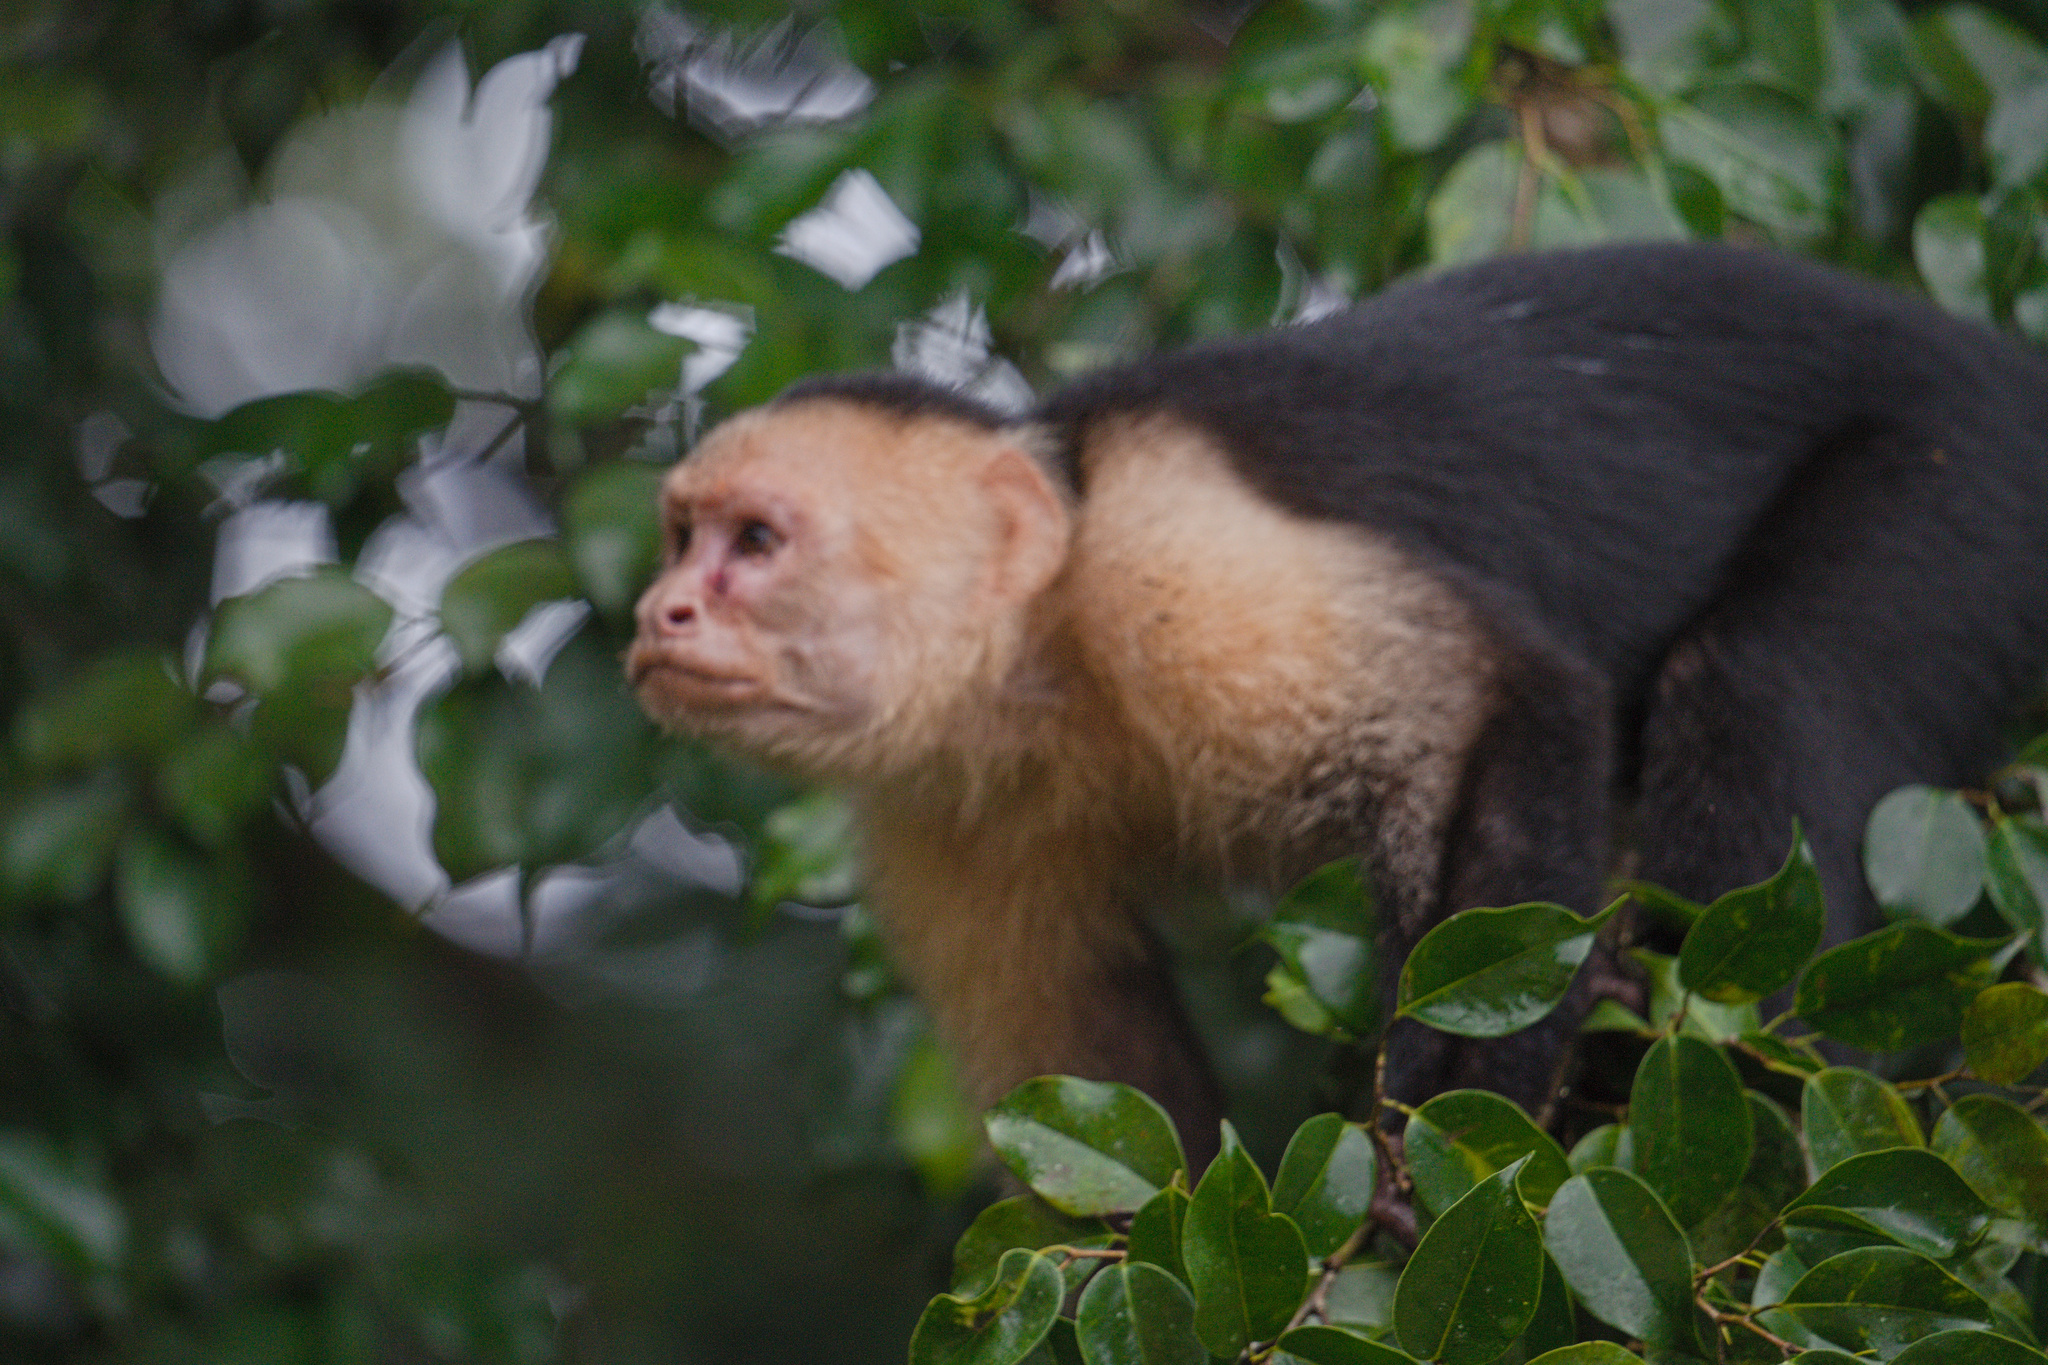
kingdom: Animalia
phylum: Chordata
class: Mammalia
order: Primates
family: Cebidae
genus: Cebus
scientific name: Cebus imitator
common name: Panamanian white-faced capuchin
